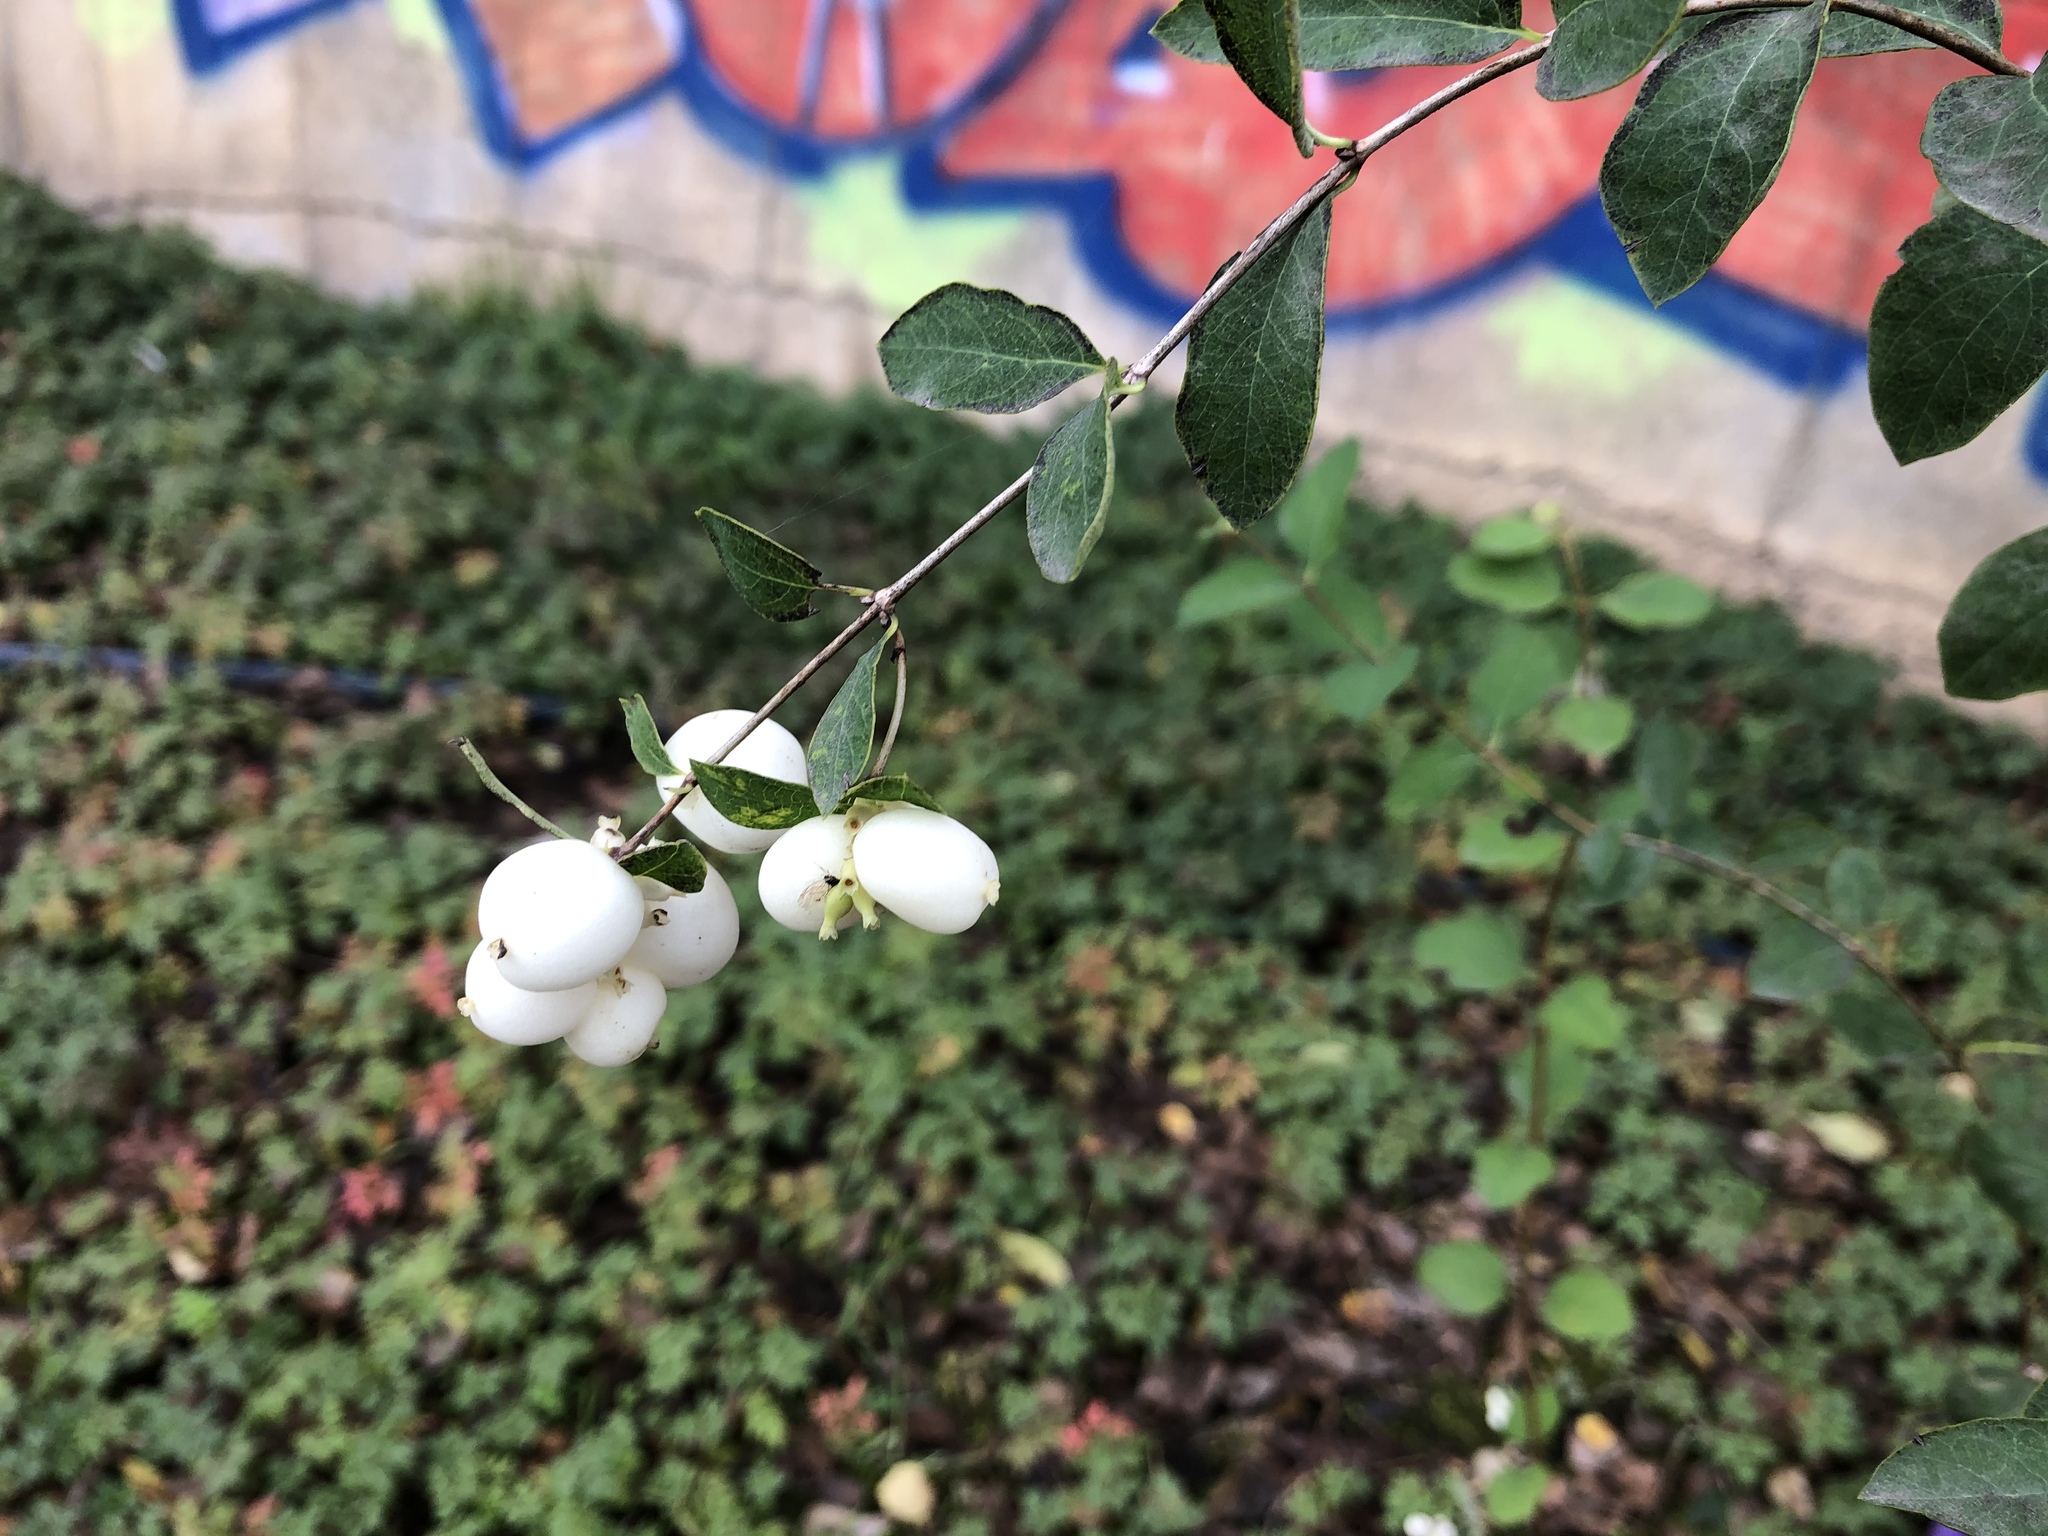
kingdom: Plantae
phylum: Tracheophyta
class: Magnoliopsida
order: Dipsacales
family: Caprifoliaceae
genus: Symphoricarpos
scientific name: Symphoricarpos albus
